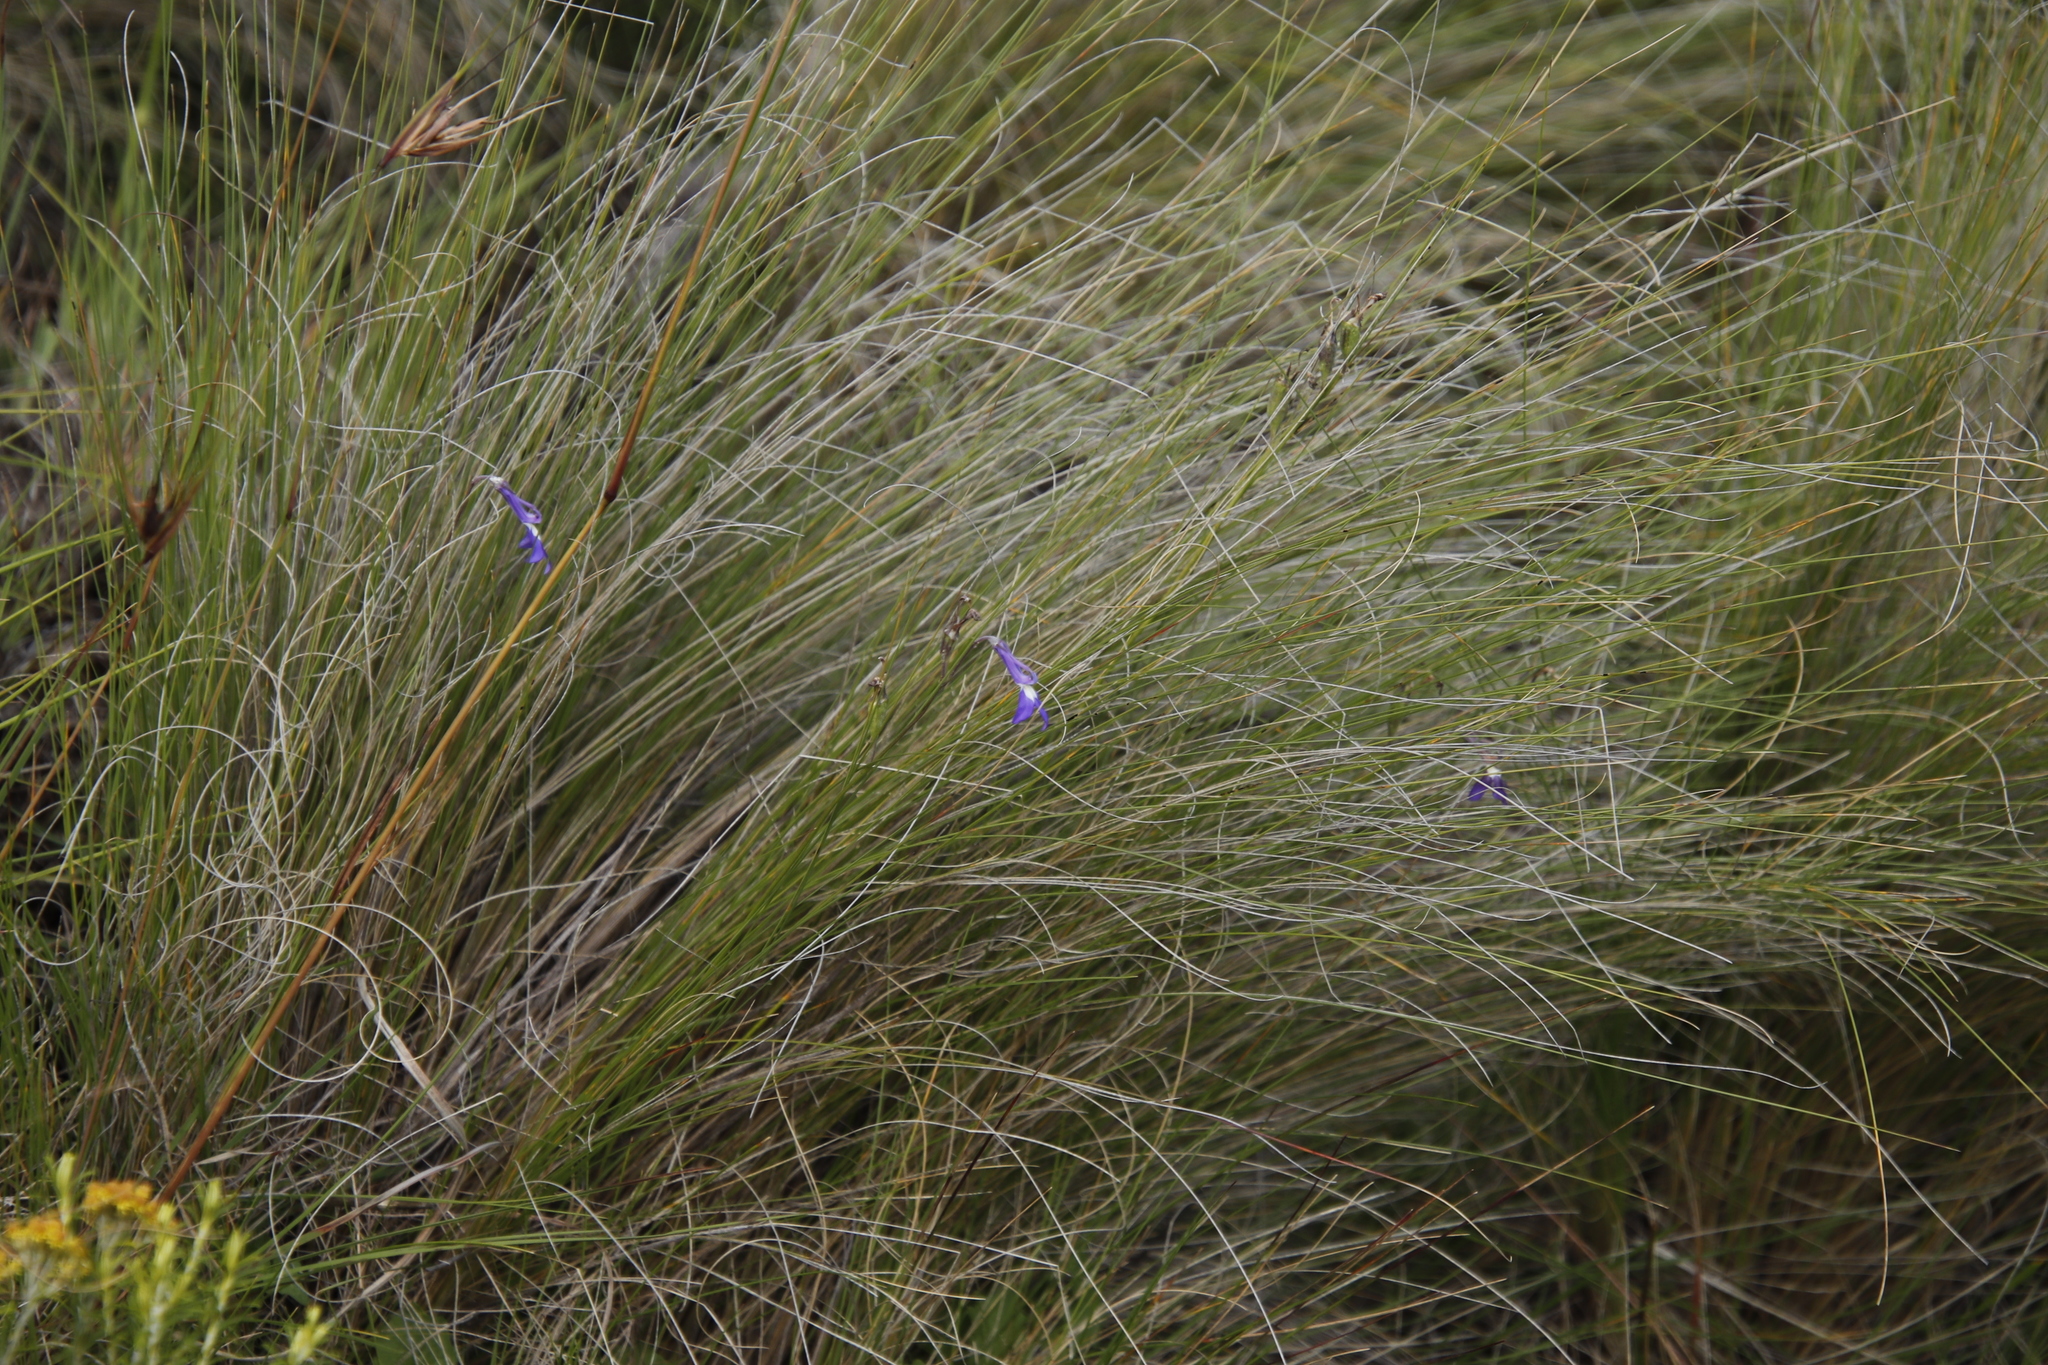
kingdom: Plantae
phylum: Tracheophyta
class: Magnoliopsida
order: Asterales
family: Campanulaceae
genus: Lobelia
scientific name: Lobelia preslii
